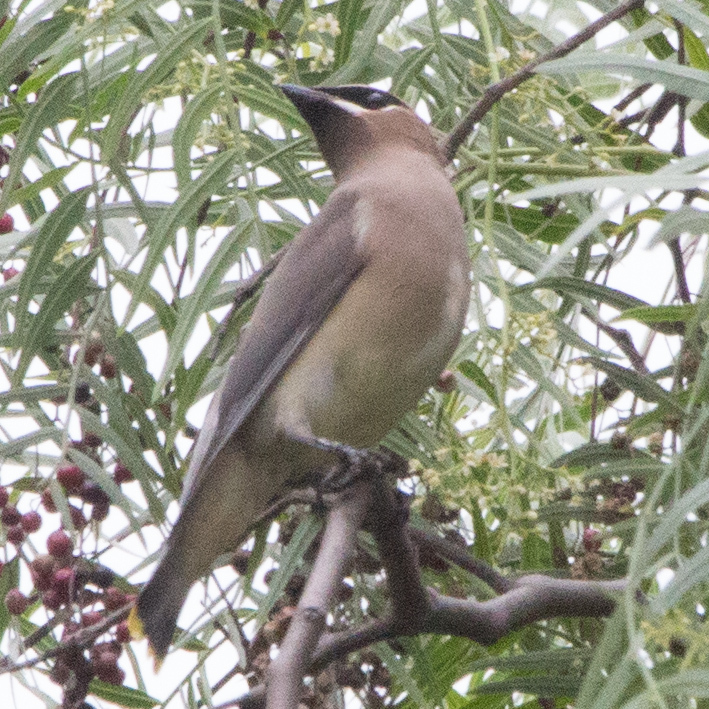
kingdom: Animalia
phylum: Chordata
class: Aves
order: Passeriformes
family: Bombycillidae
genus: Bombycilla
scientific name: Bombycilla cedrorum
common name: Cedar waxwing
